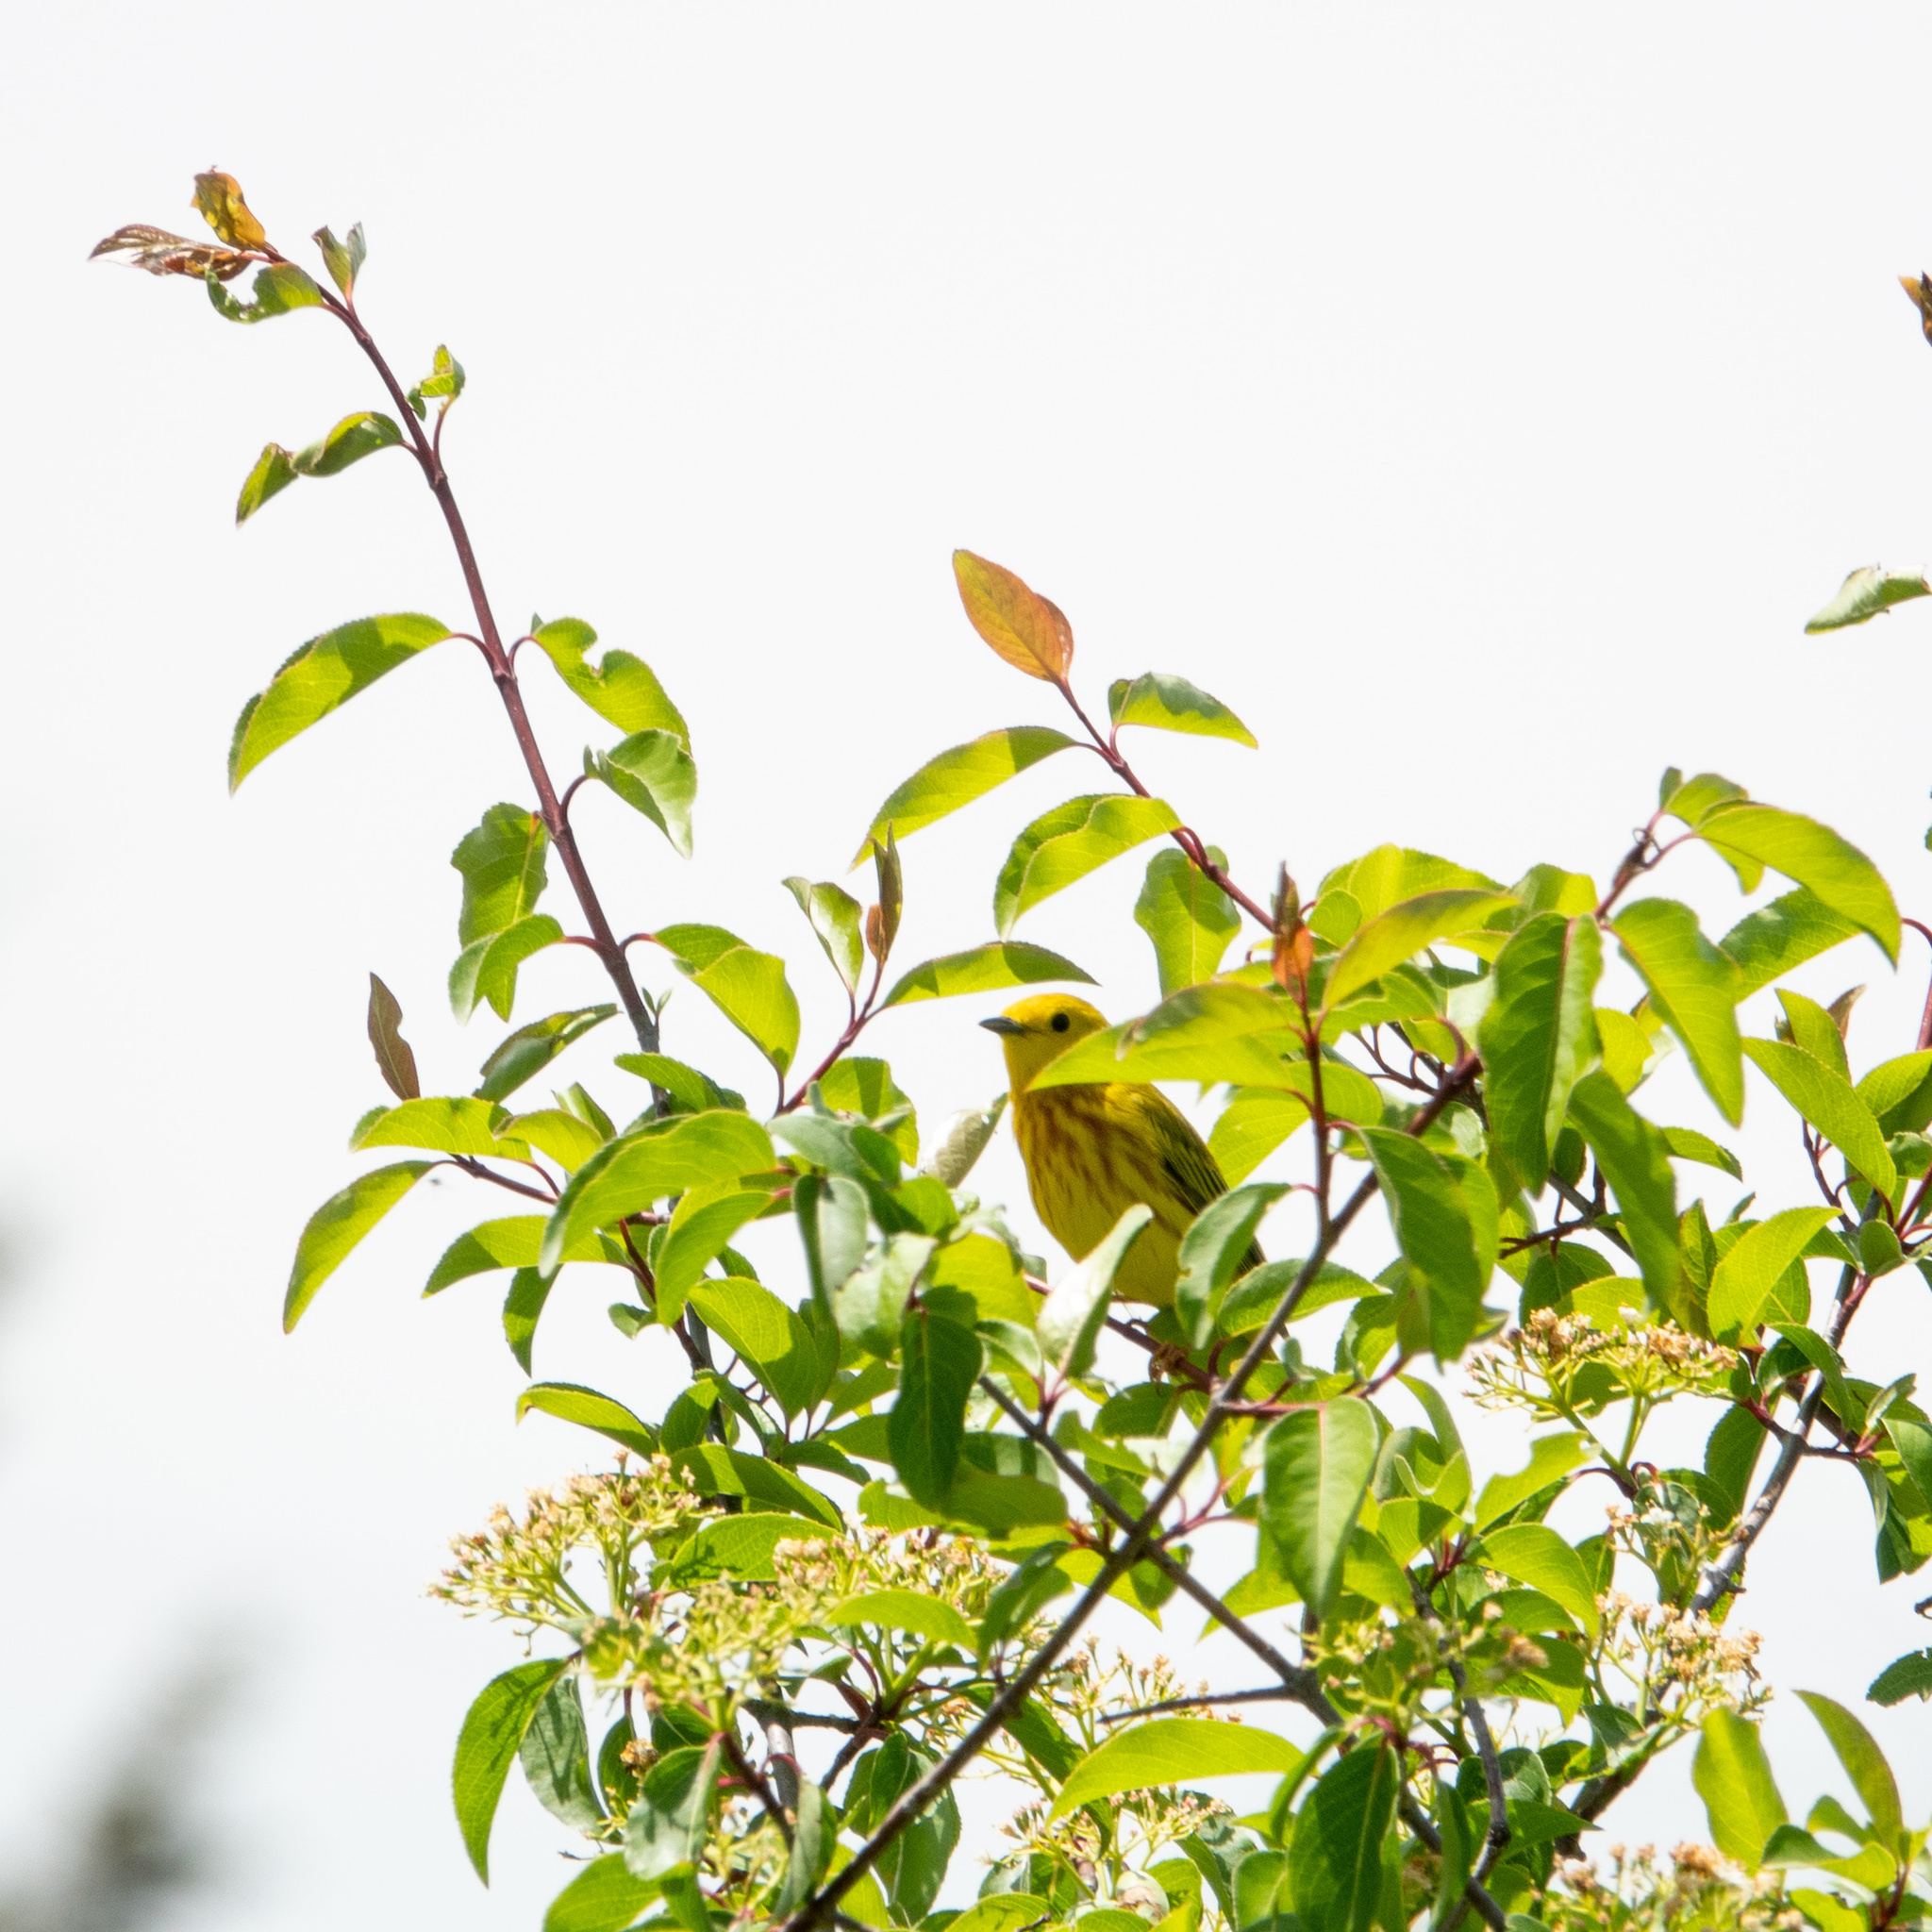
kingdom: Animalia
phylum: Chordata
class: Aves
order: Passeriformes
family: Parulidae
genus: Setophaga
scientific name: Setophaga petechia
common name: Yellow warbler
